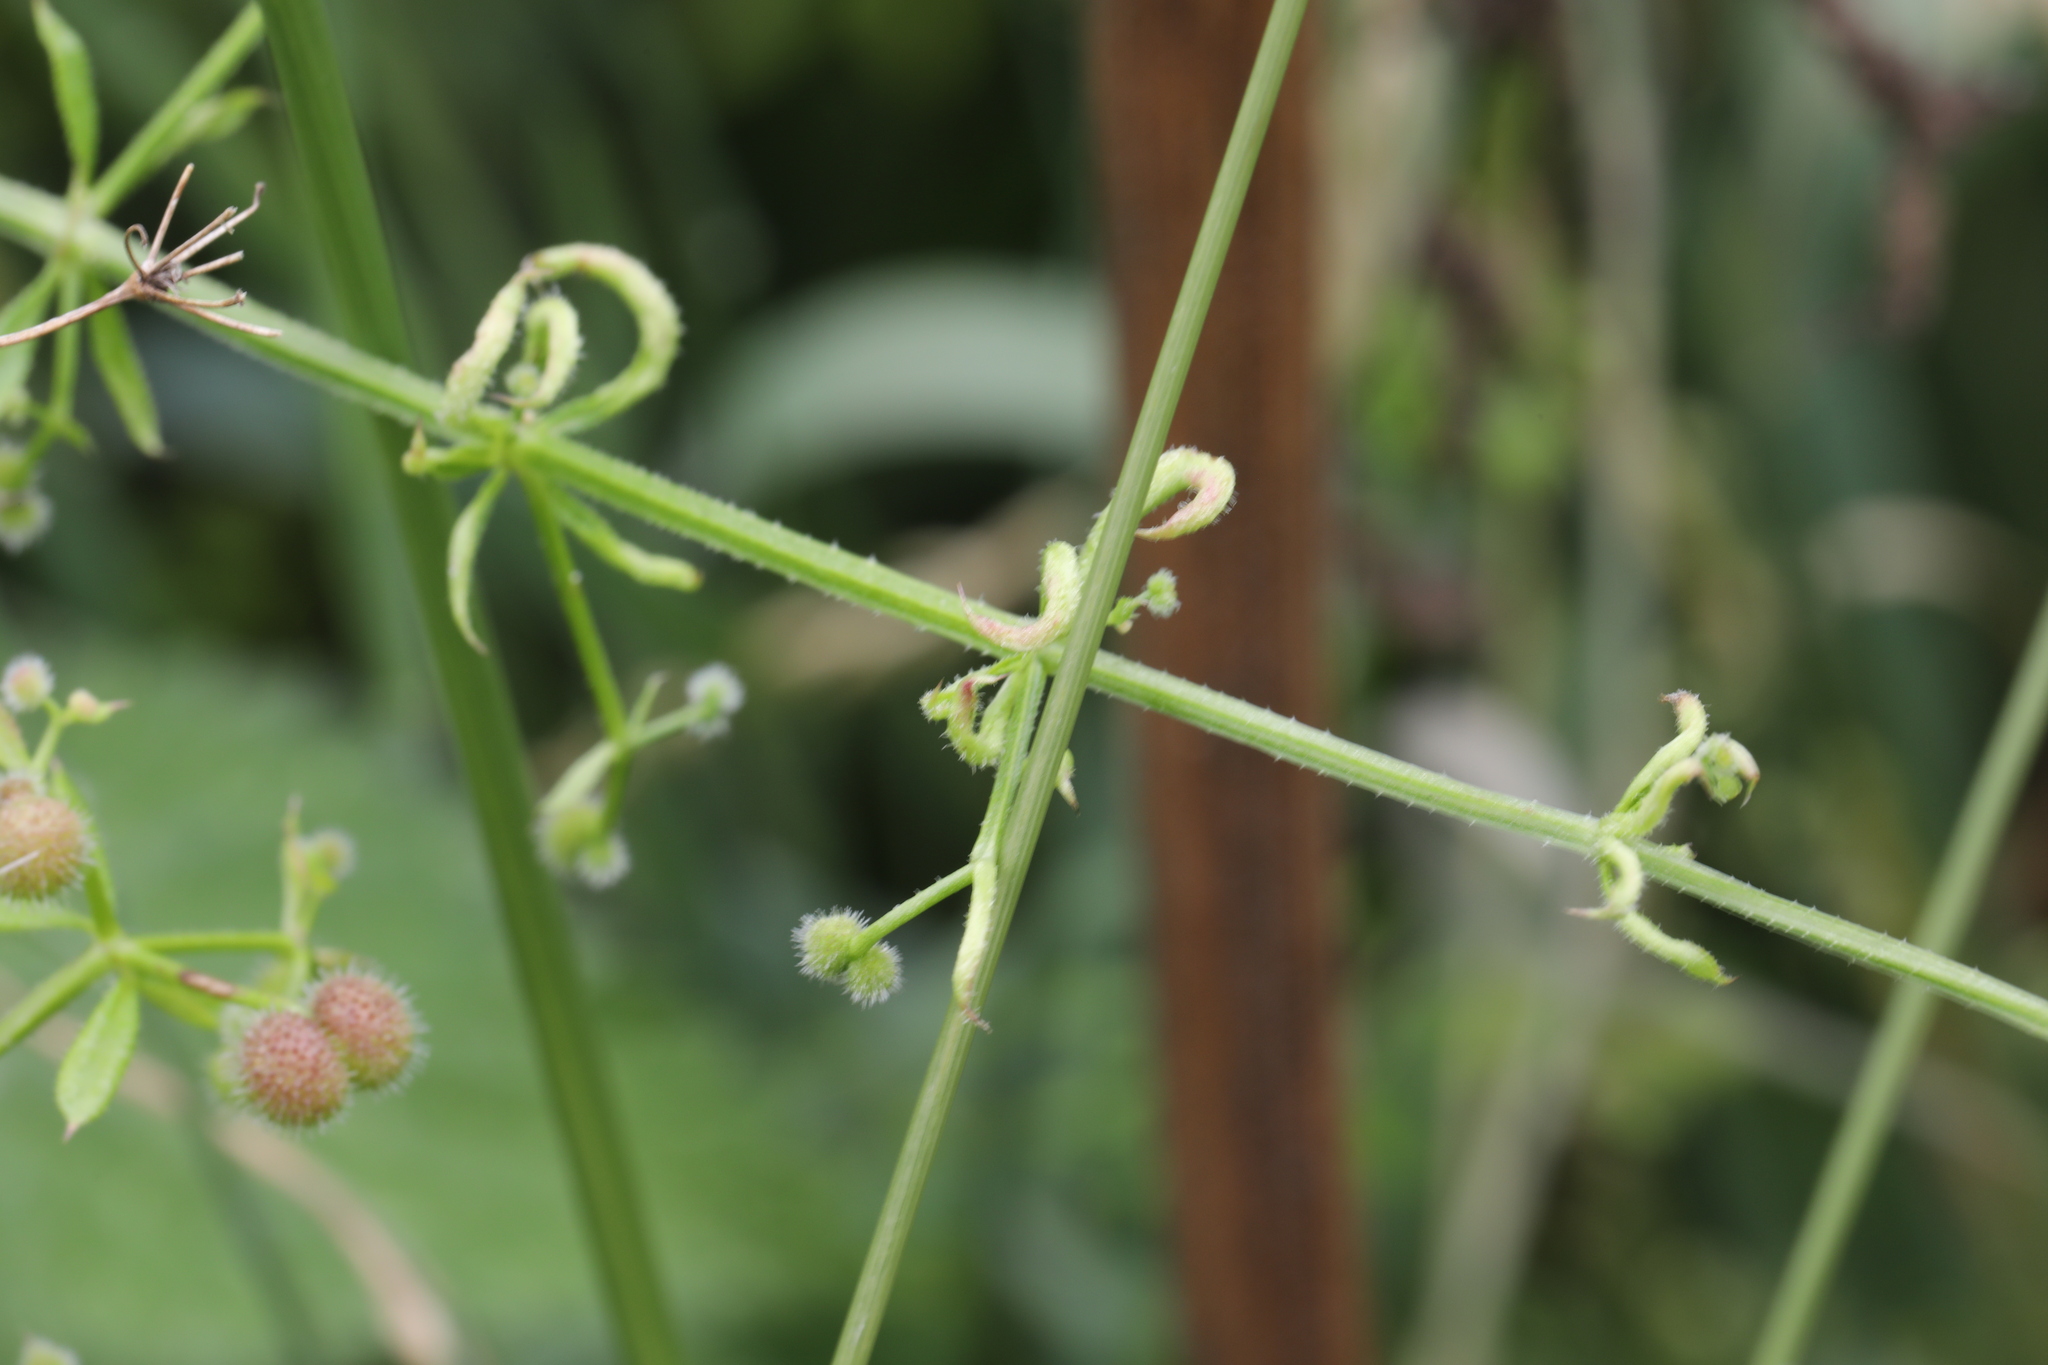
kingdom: Animalia
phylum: Arthropoda
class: Arachnida
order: Trombidiformes
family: Eriophyidae
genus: Cecidophyes
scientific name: Cecidophyes rouhollahi
